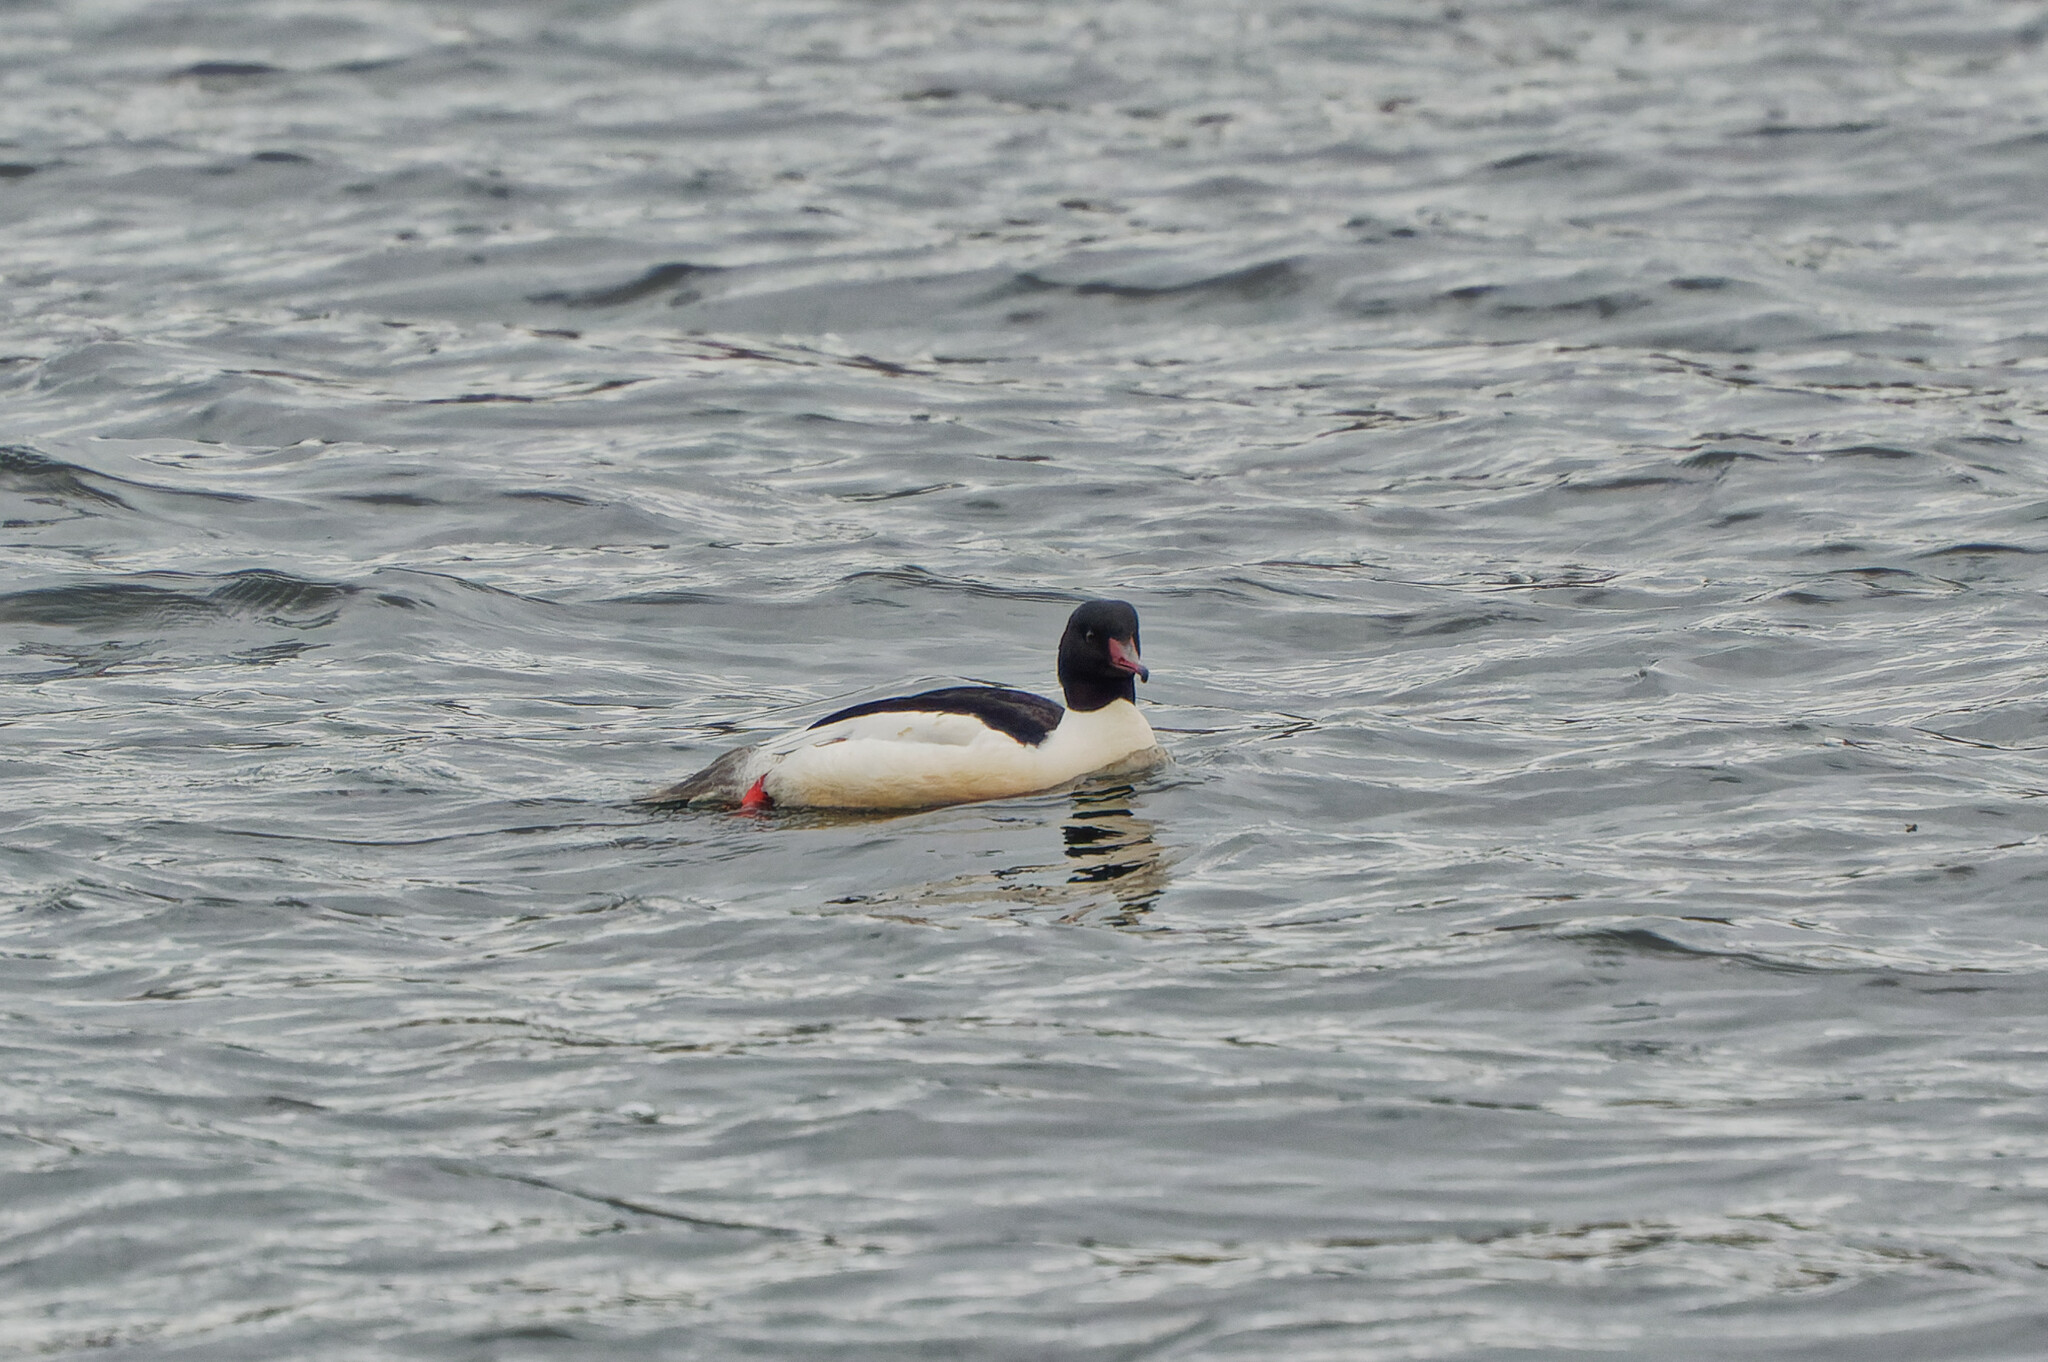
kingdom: Animalia
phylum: Chordata
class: Aves
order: Anseriformes
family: Anatidae
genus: Mergus
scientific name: Mergus merganser
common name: Common merganser
